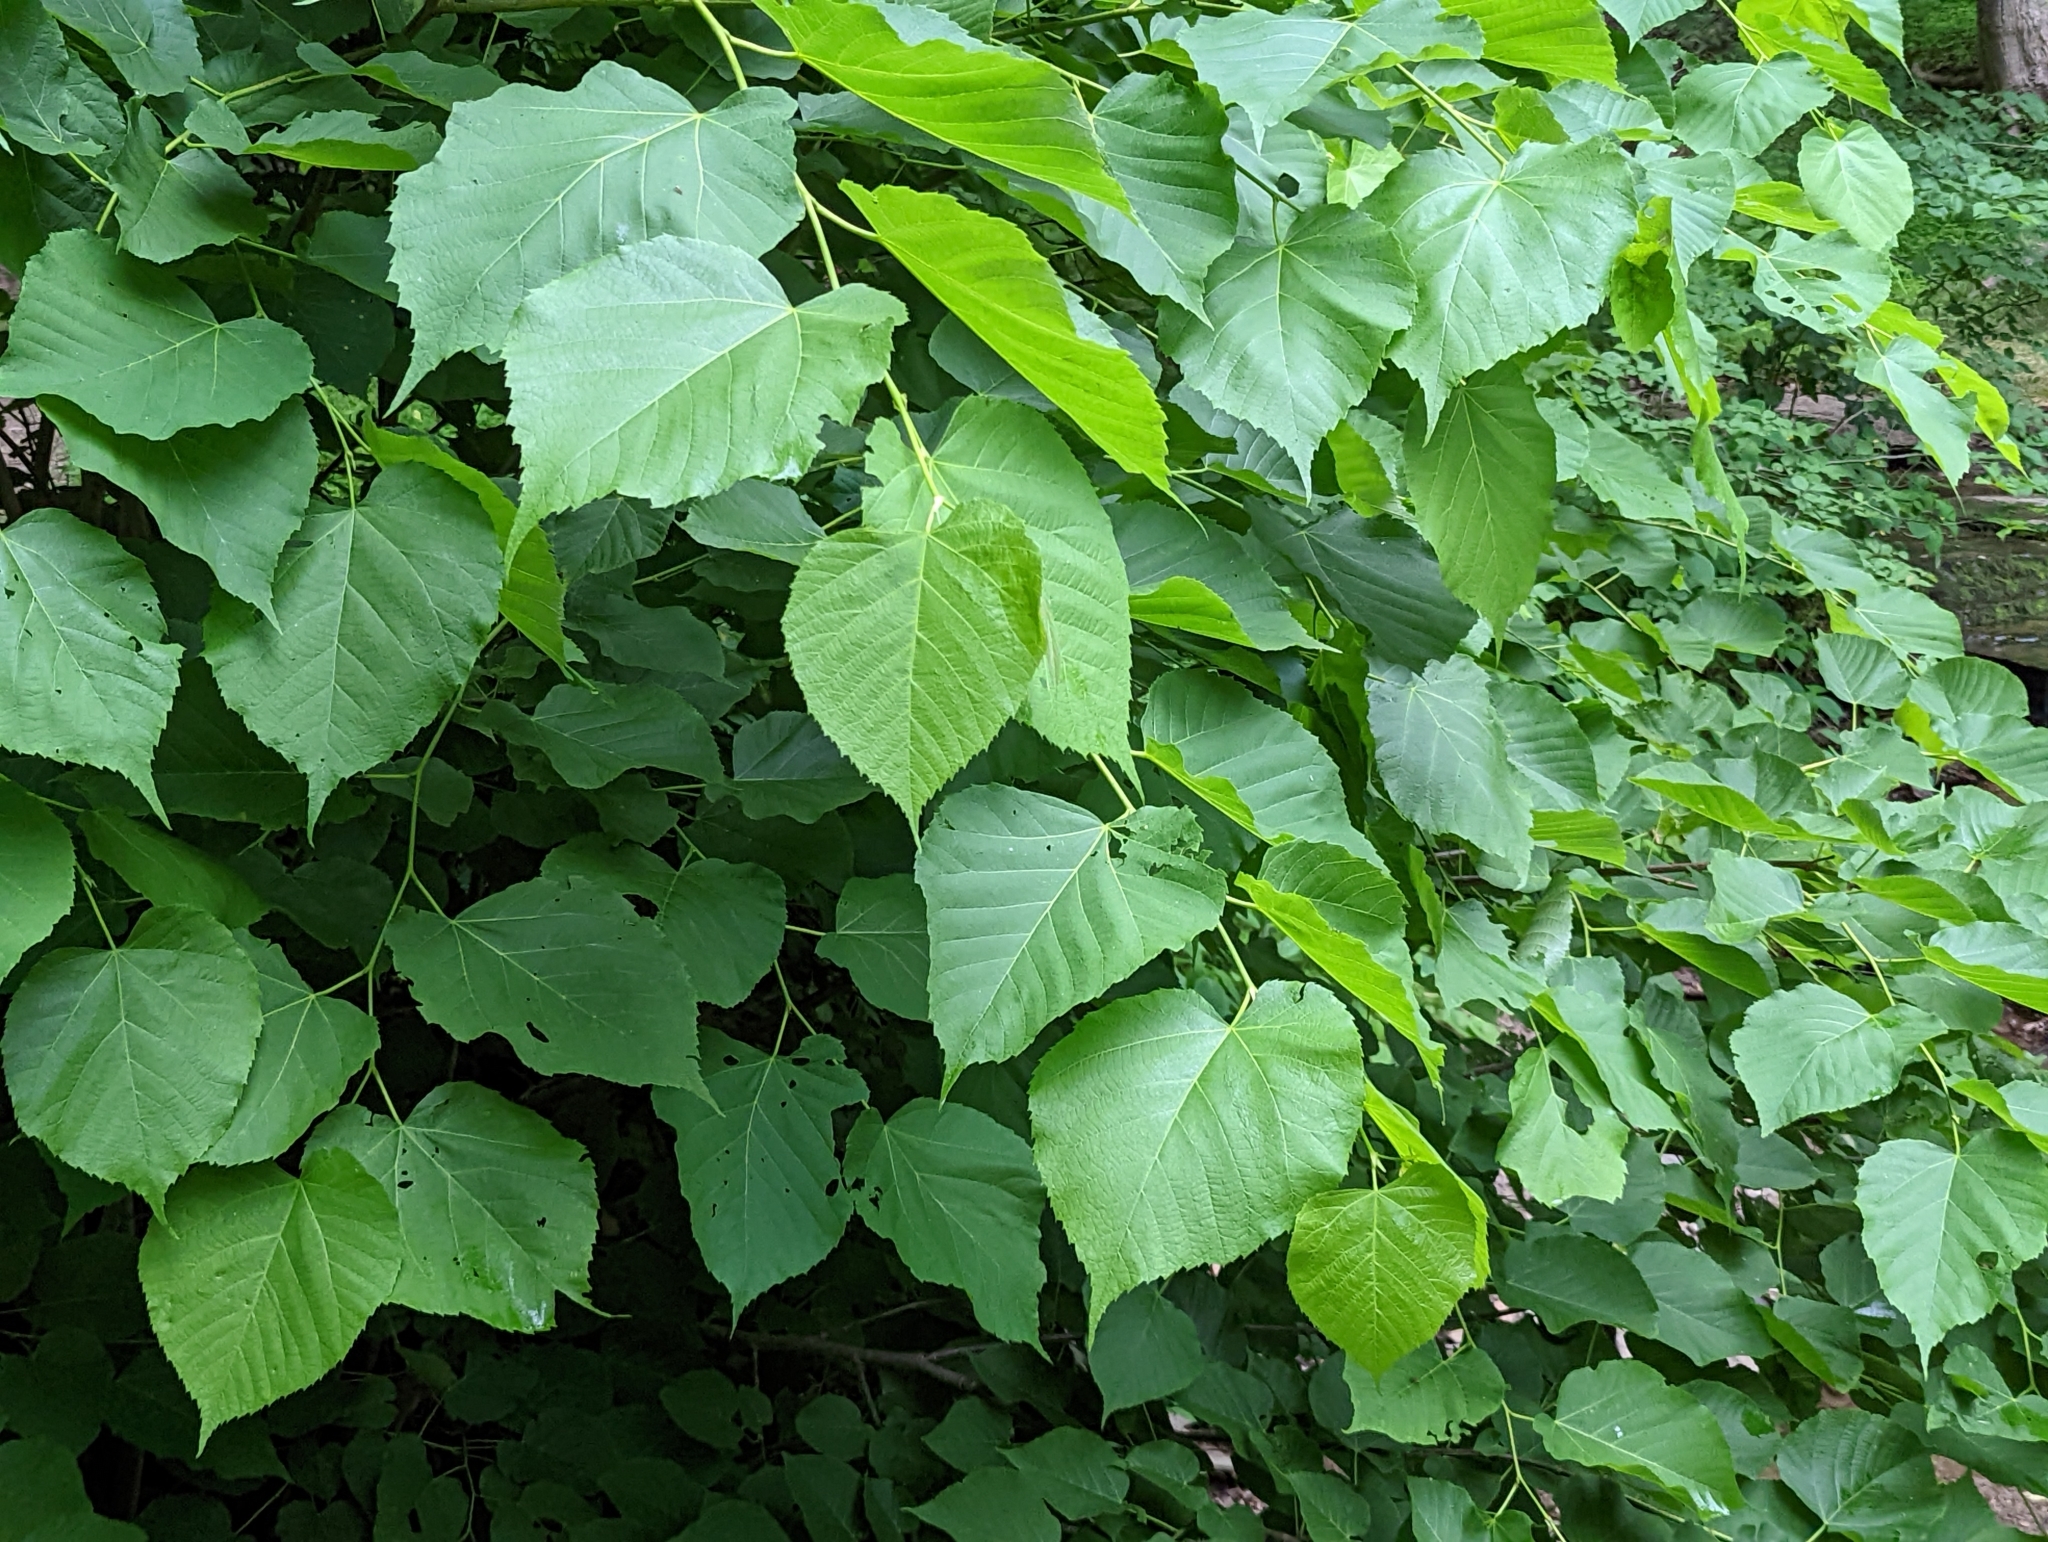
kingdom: Plantae
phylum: Tracheophyta
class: Magnoliopsida
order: Malvales
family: Malvaceae
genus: Tilia
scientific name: Tilia americana
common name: Basswood
